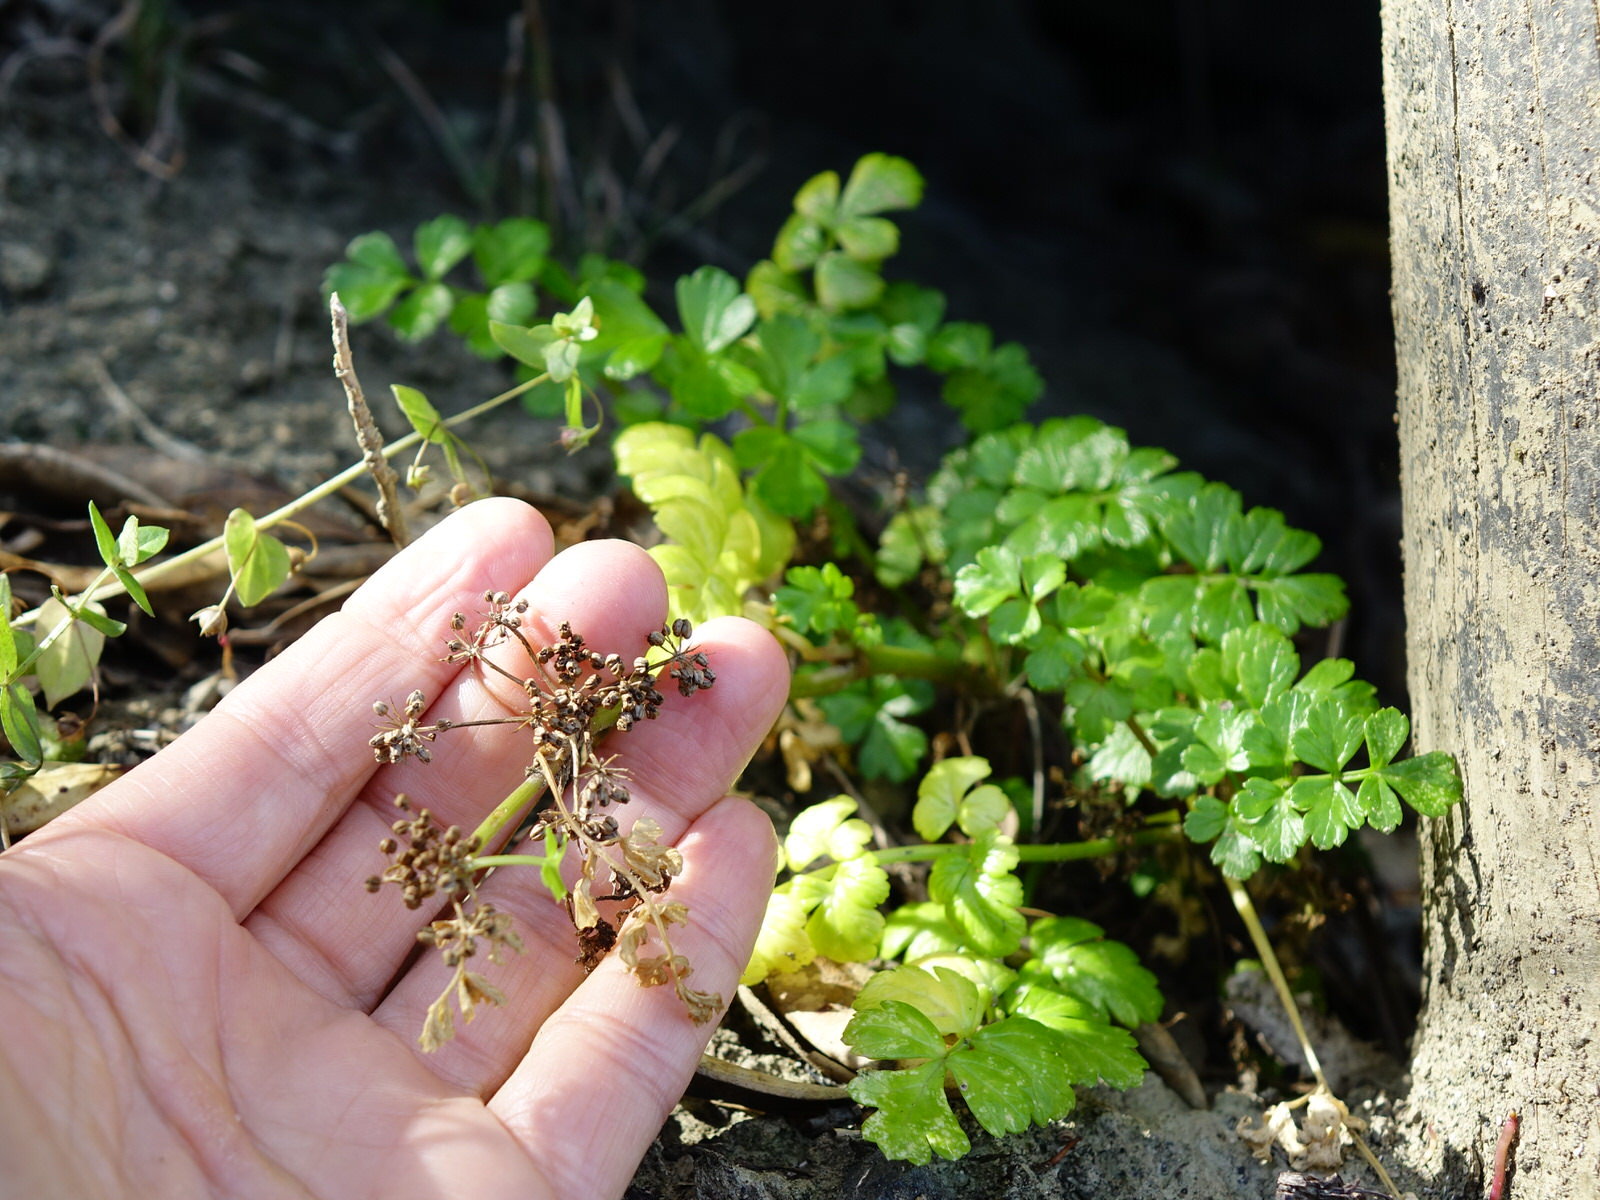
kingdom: Plantae
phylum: Tracheophyta
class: Magnoliopsida
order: Apiales
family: Apiaceae
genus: Apium
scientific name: Apium prostratum
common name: Prostrate marshwort
